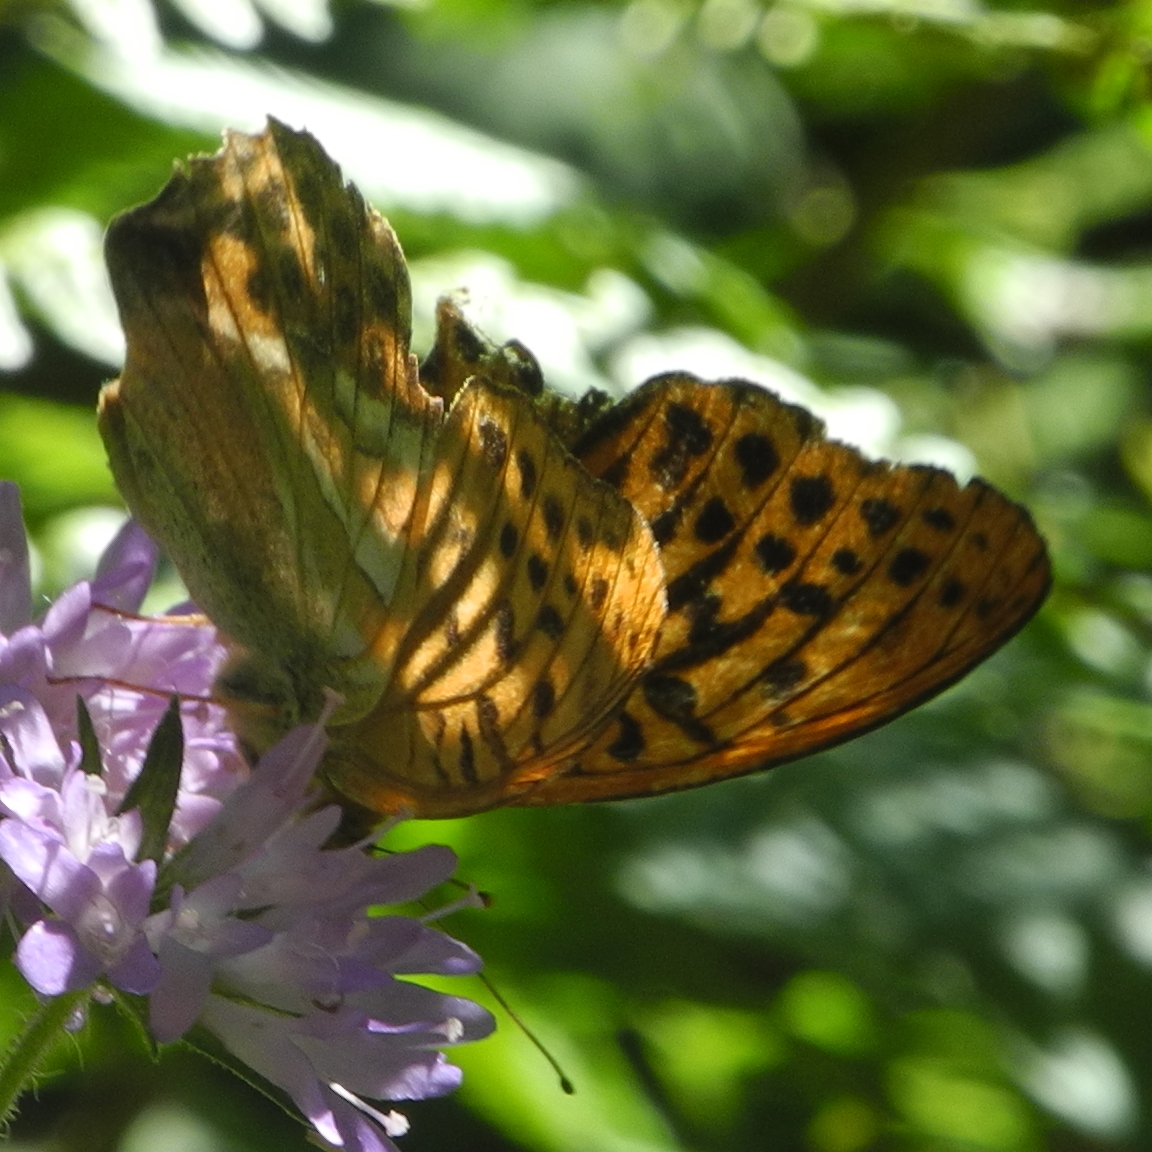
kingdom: Animalia
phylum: Arthropoda
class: Insecta
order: Lepidoptera
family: Nymphalidae
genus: Argynnis
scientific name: Argynnis paphia
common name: Silver-washed fritillary
